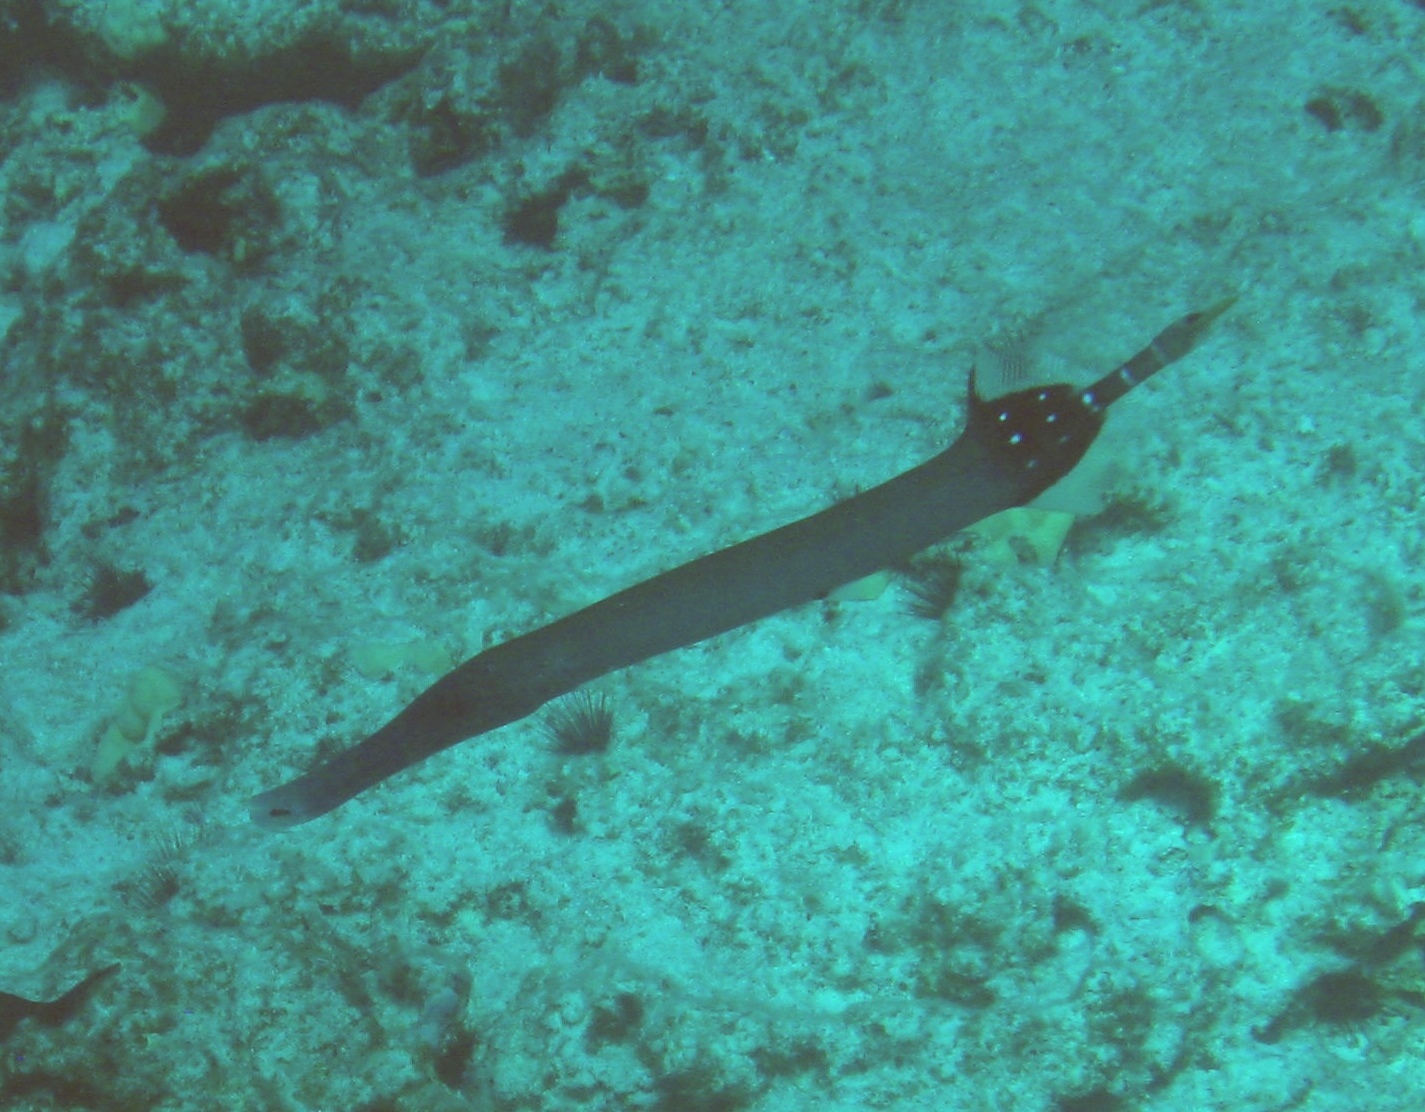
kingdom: Animalia
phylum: Chordata
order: Syngnathiformes
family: Aulostomidae
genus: Aulostomus
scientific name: Aulostomus chinensis
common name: Chinese trumpetfish
